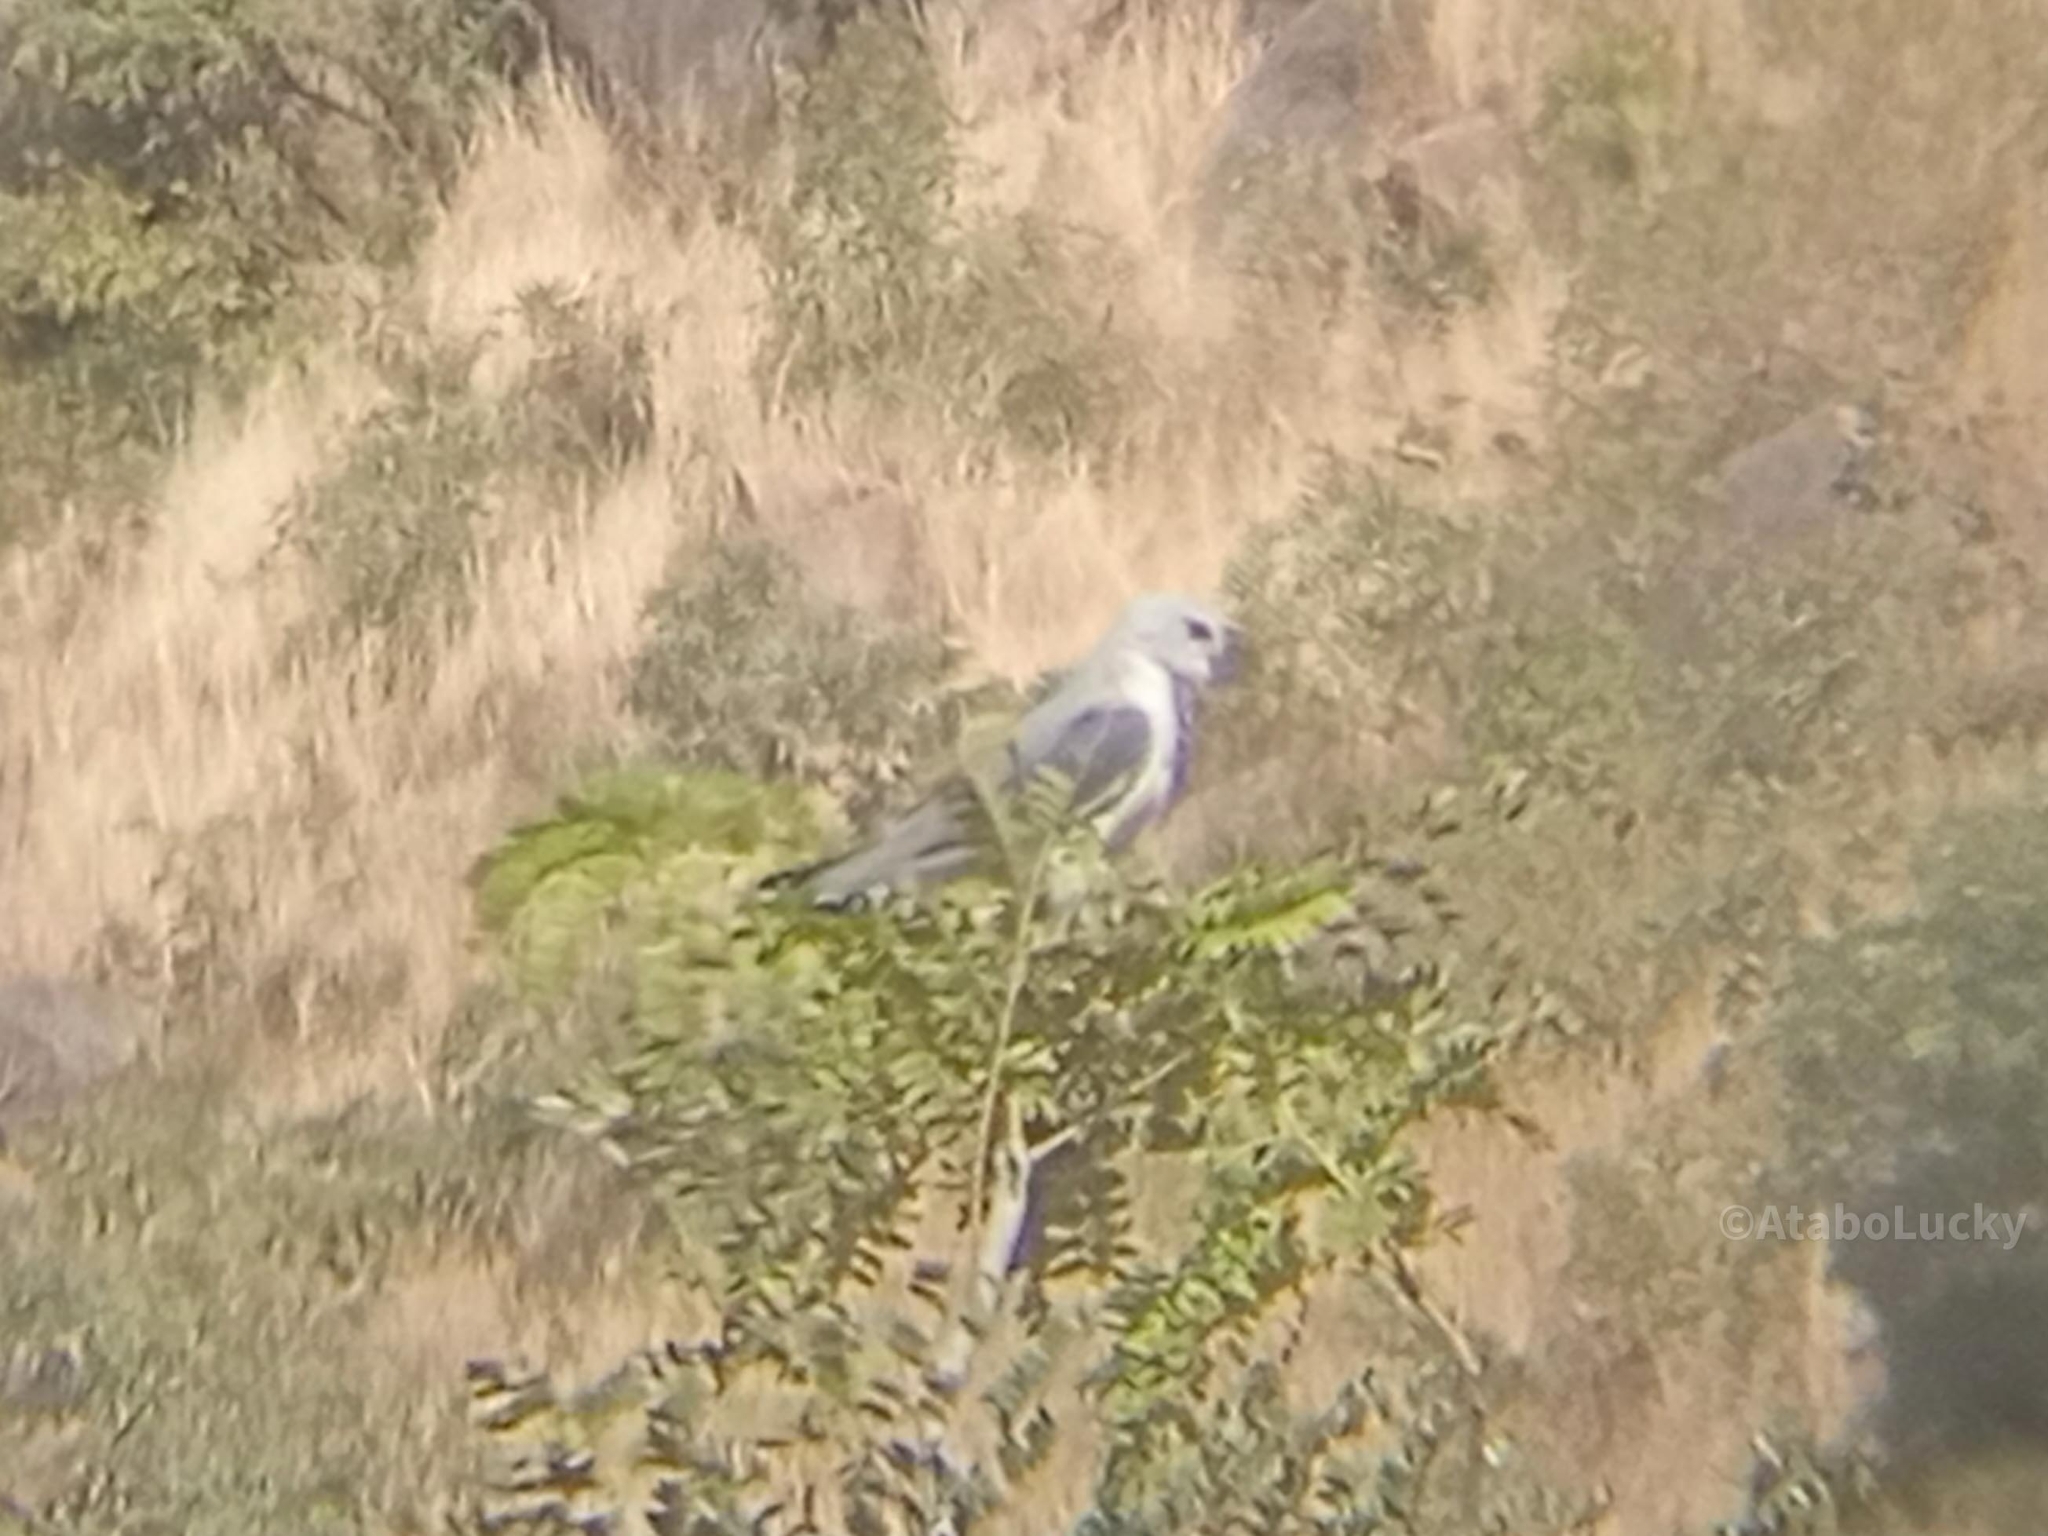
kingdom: Animalia
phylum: Chordata
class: Aves
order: Accipitriformes
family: Accipitridae
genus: Elanus
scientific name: Elanus caeruleus
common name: Black-winged kite
